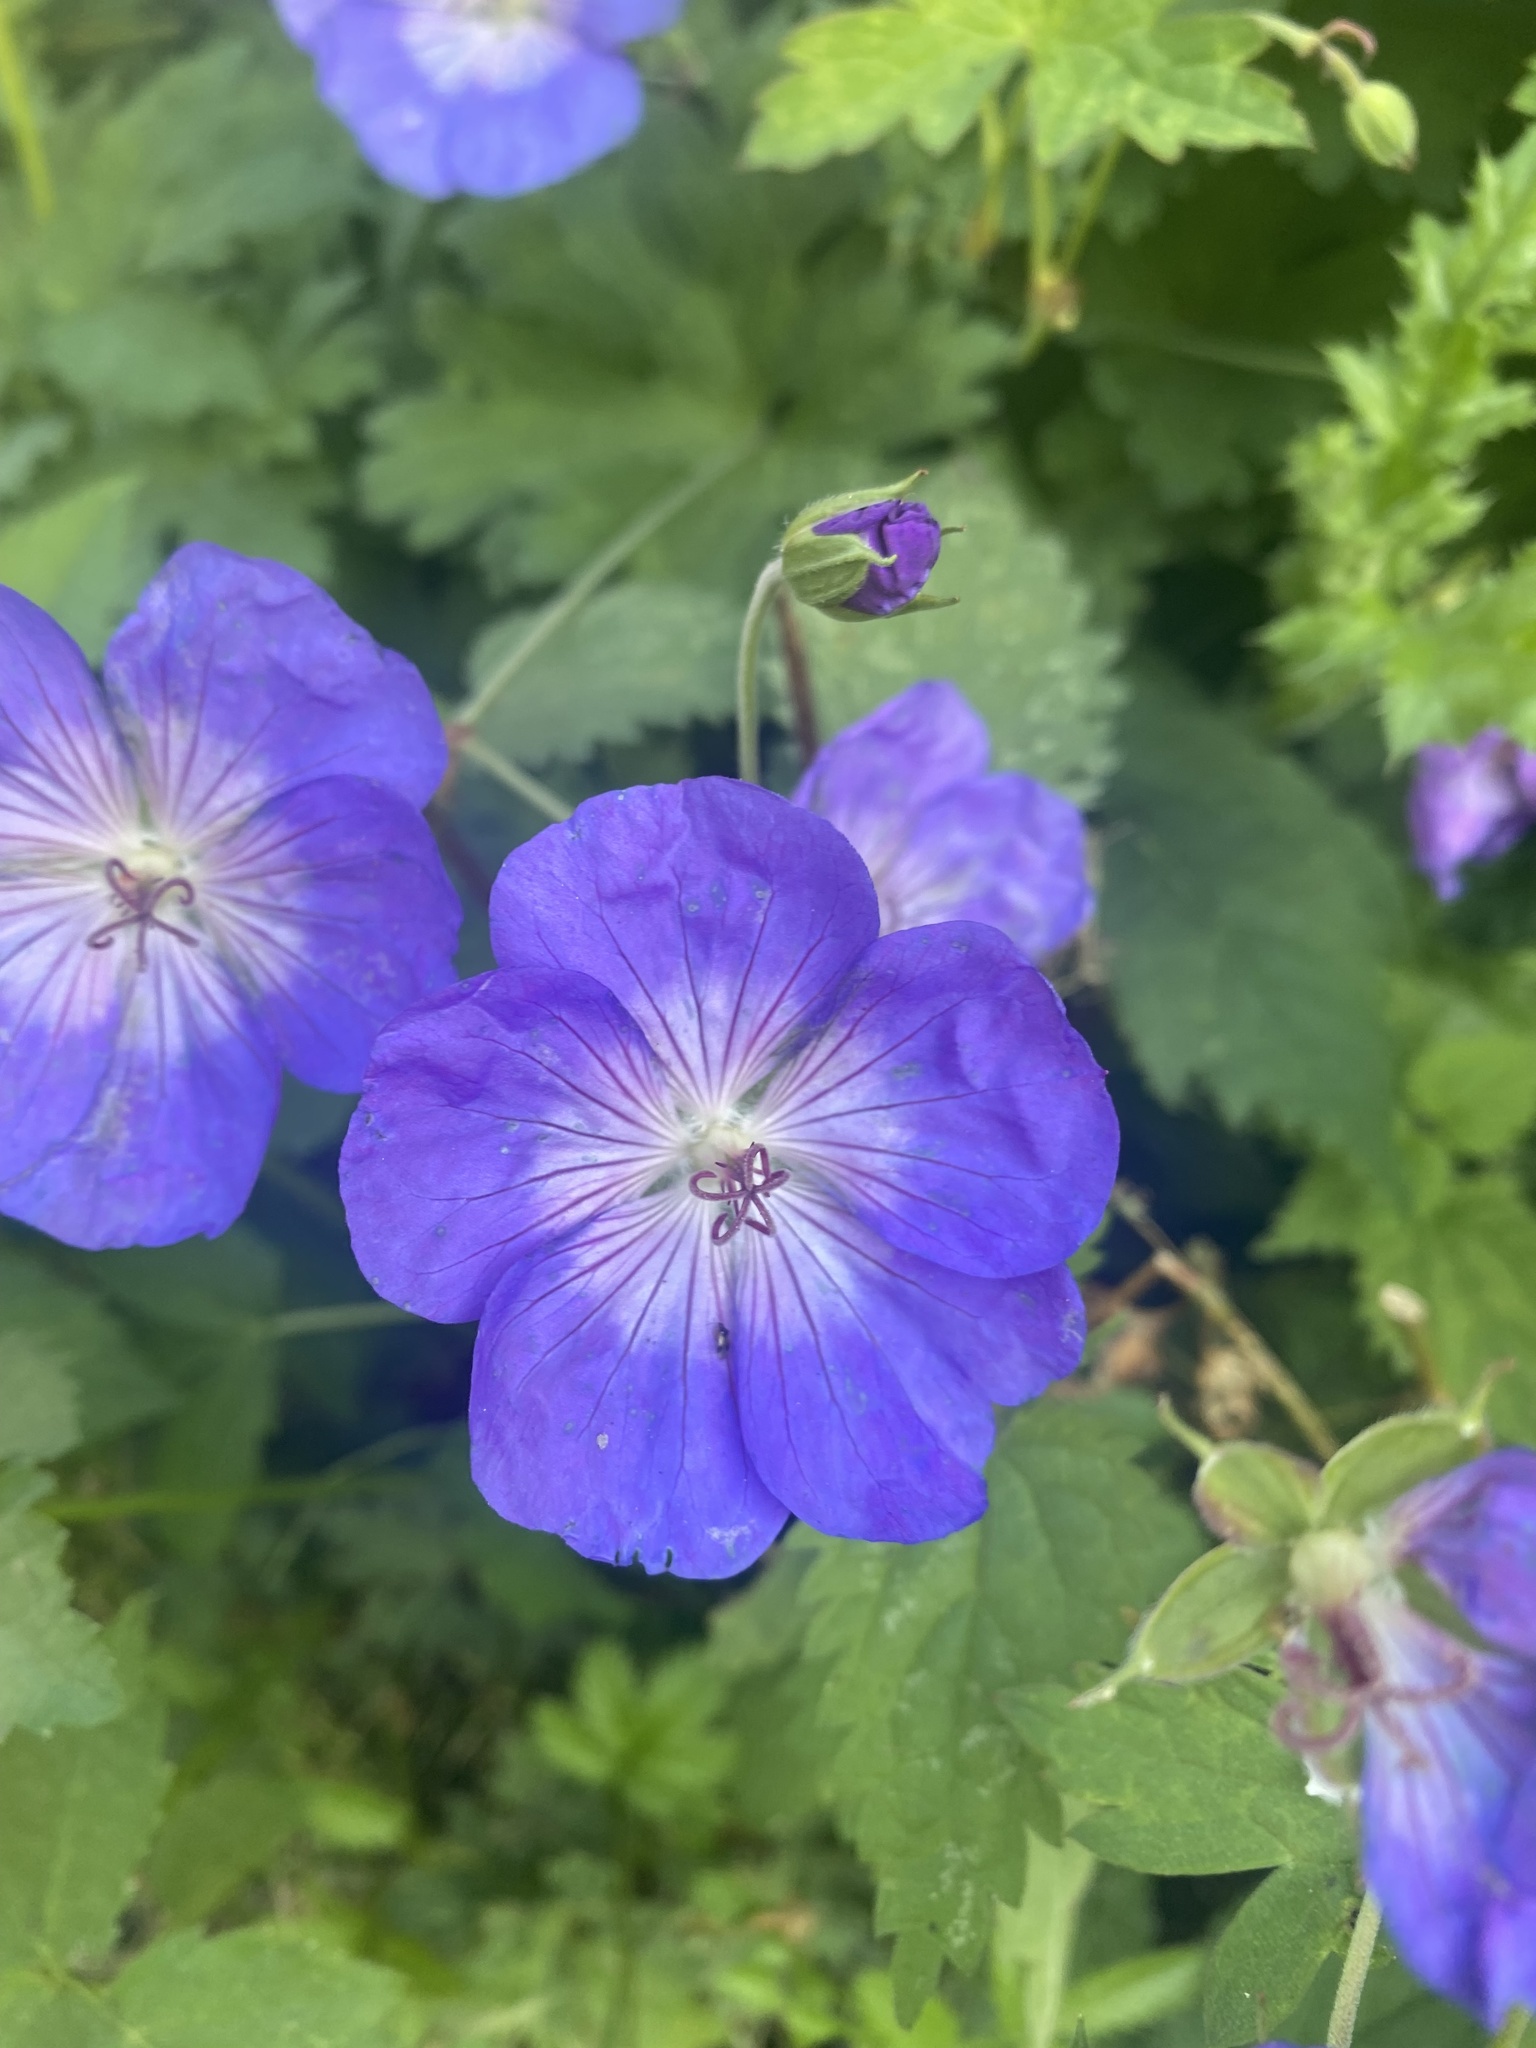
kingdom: Plantae
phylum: Tracheophyta
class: Magnoliopsida
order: Geraniales
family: Geraniaceae
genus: Geranium
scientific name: Geranium pratense
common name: Meadow crane's-bill
